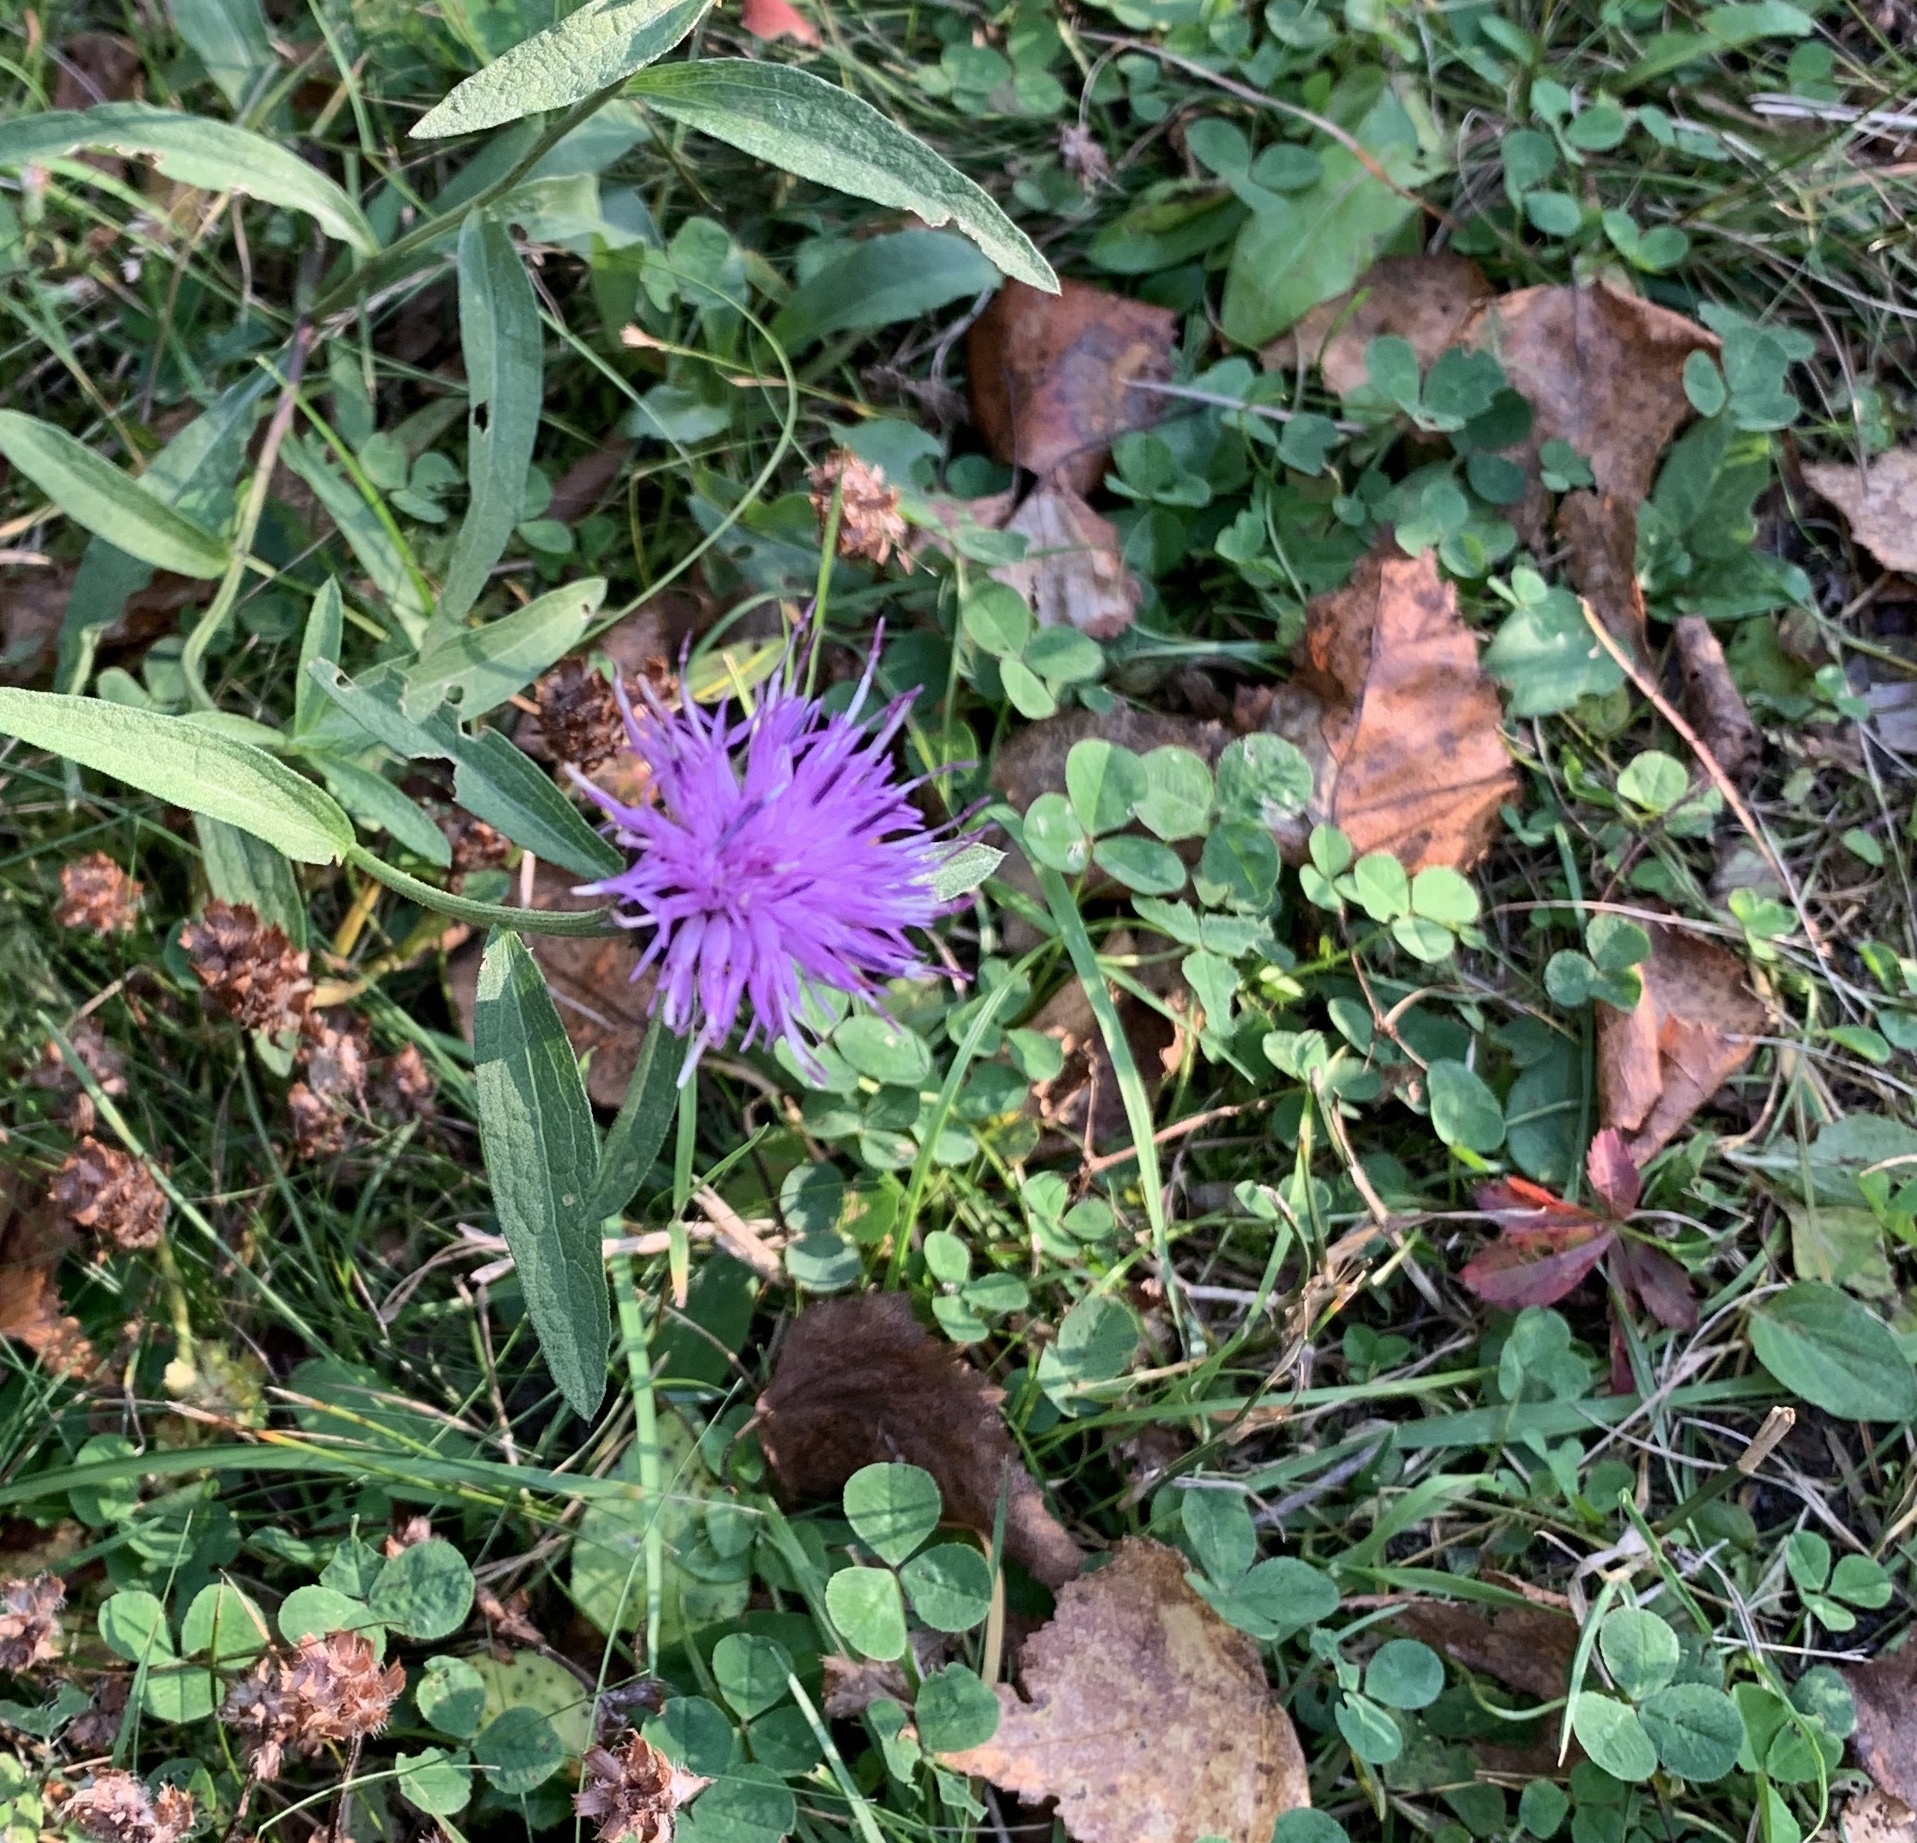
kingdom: Plantae
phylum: Tracheophyta
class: Magnoliopsida
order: Asterales
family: Asteraceae
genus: Centaurea
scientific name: Centaurea nigra
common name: Lesser knapweed
